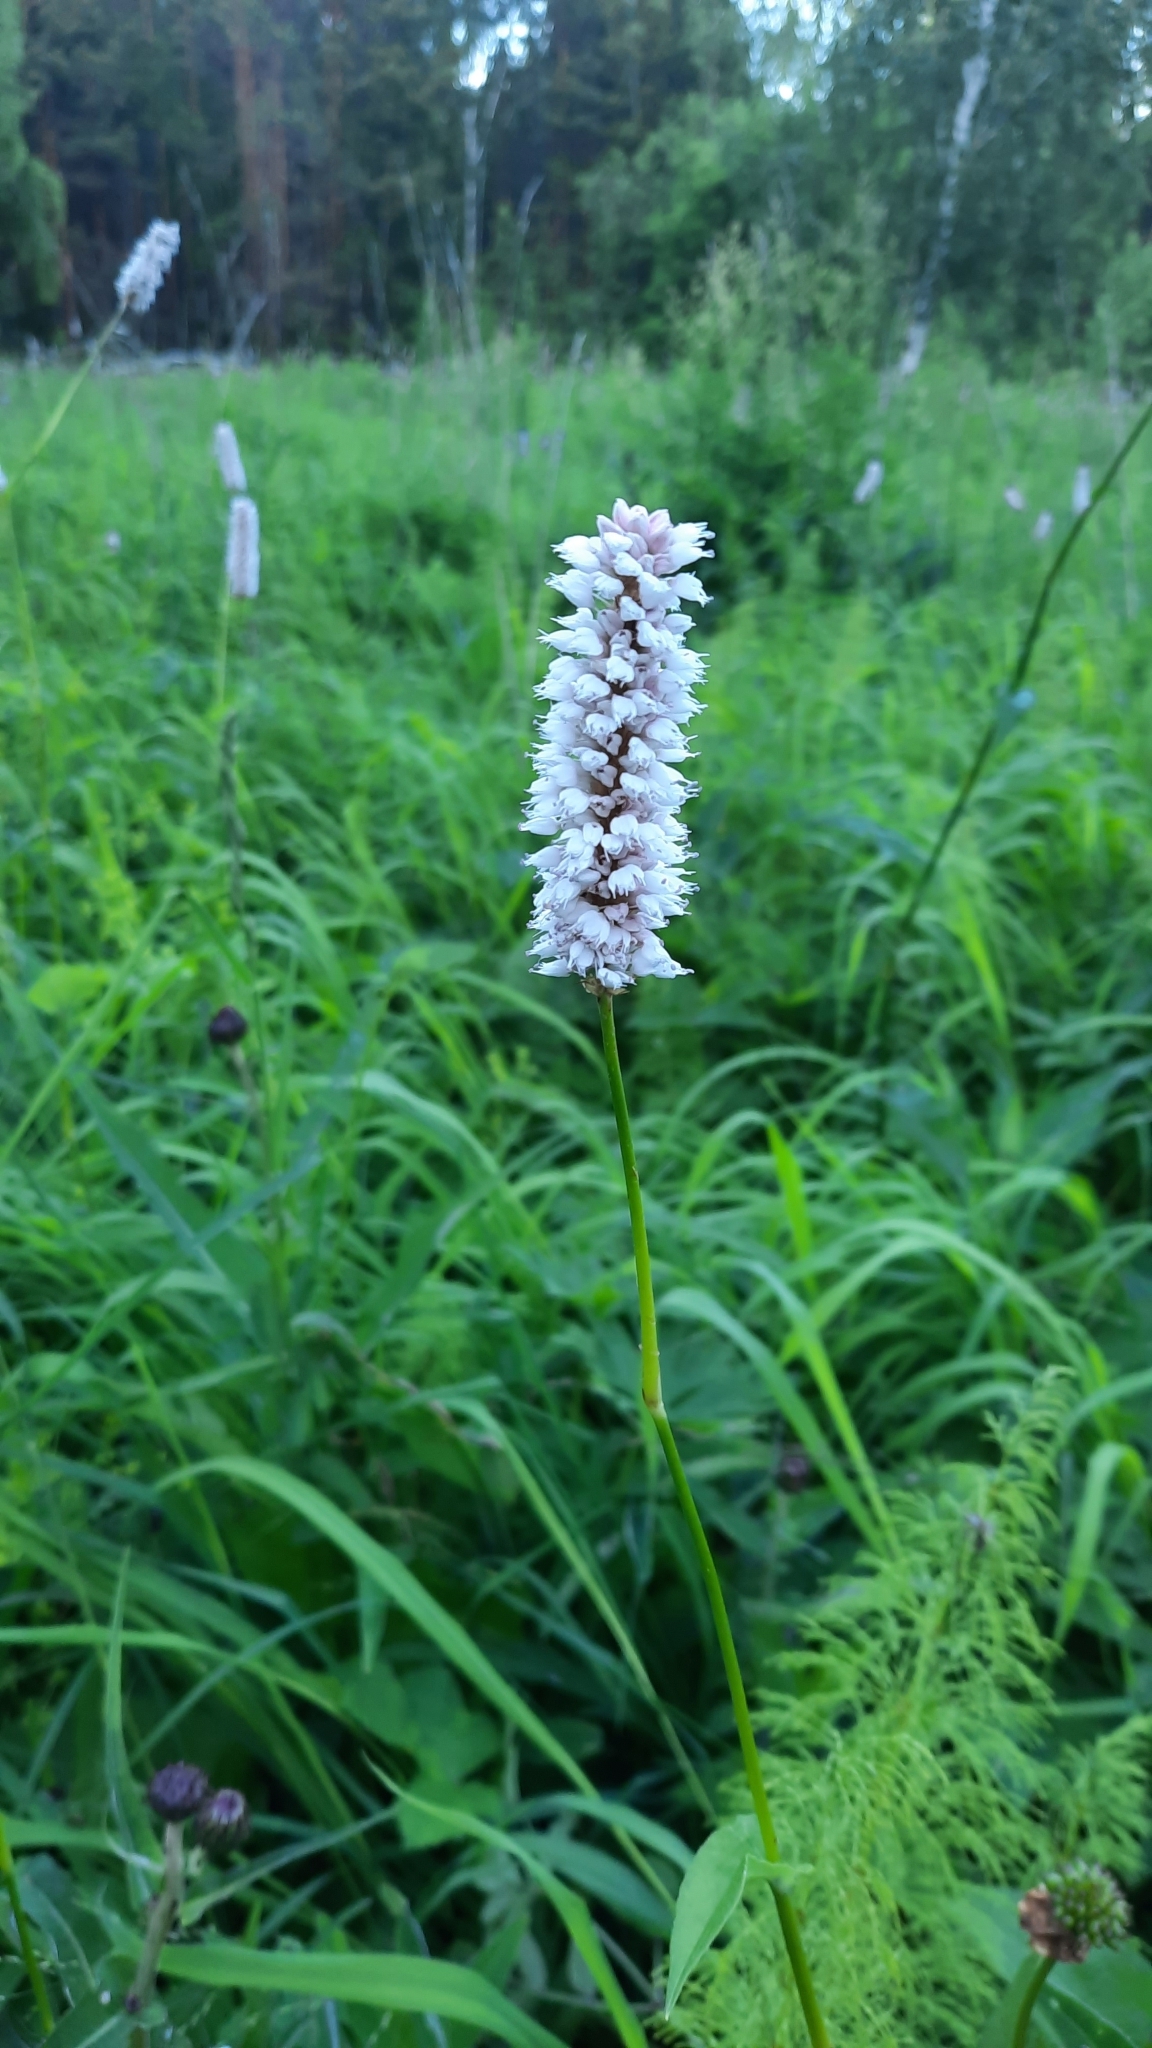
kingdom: Plantae
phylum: Tracheophyta
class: Magnoliopsida
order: Caryophyllales
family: Polygonaceae
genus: Bistorta
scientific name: Bistorta officinalis
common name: Common bistort
